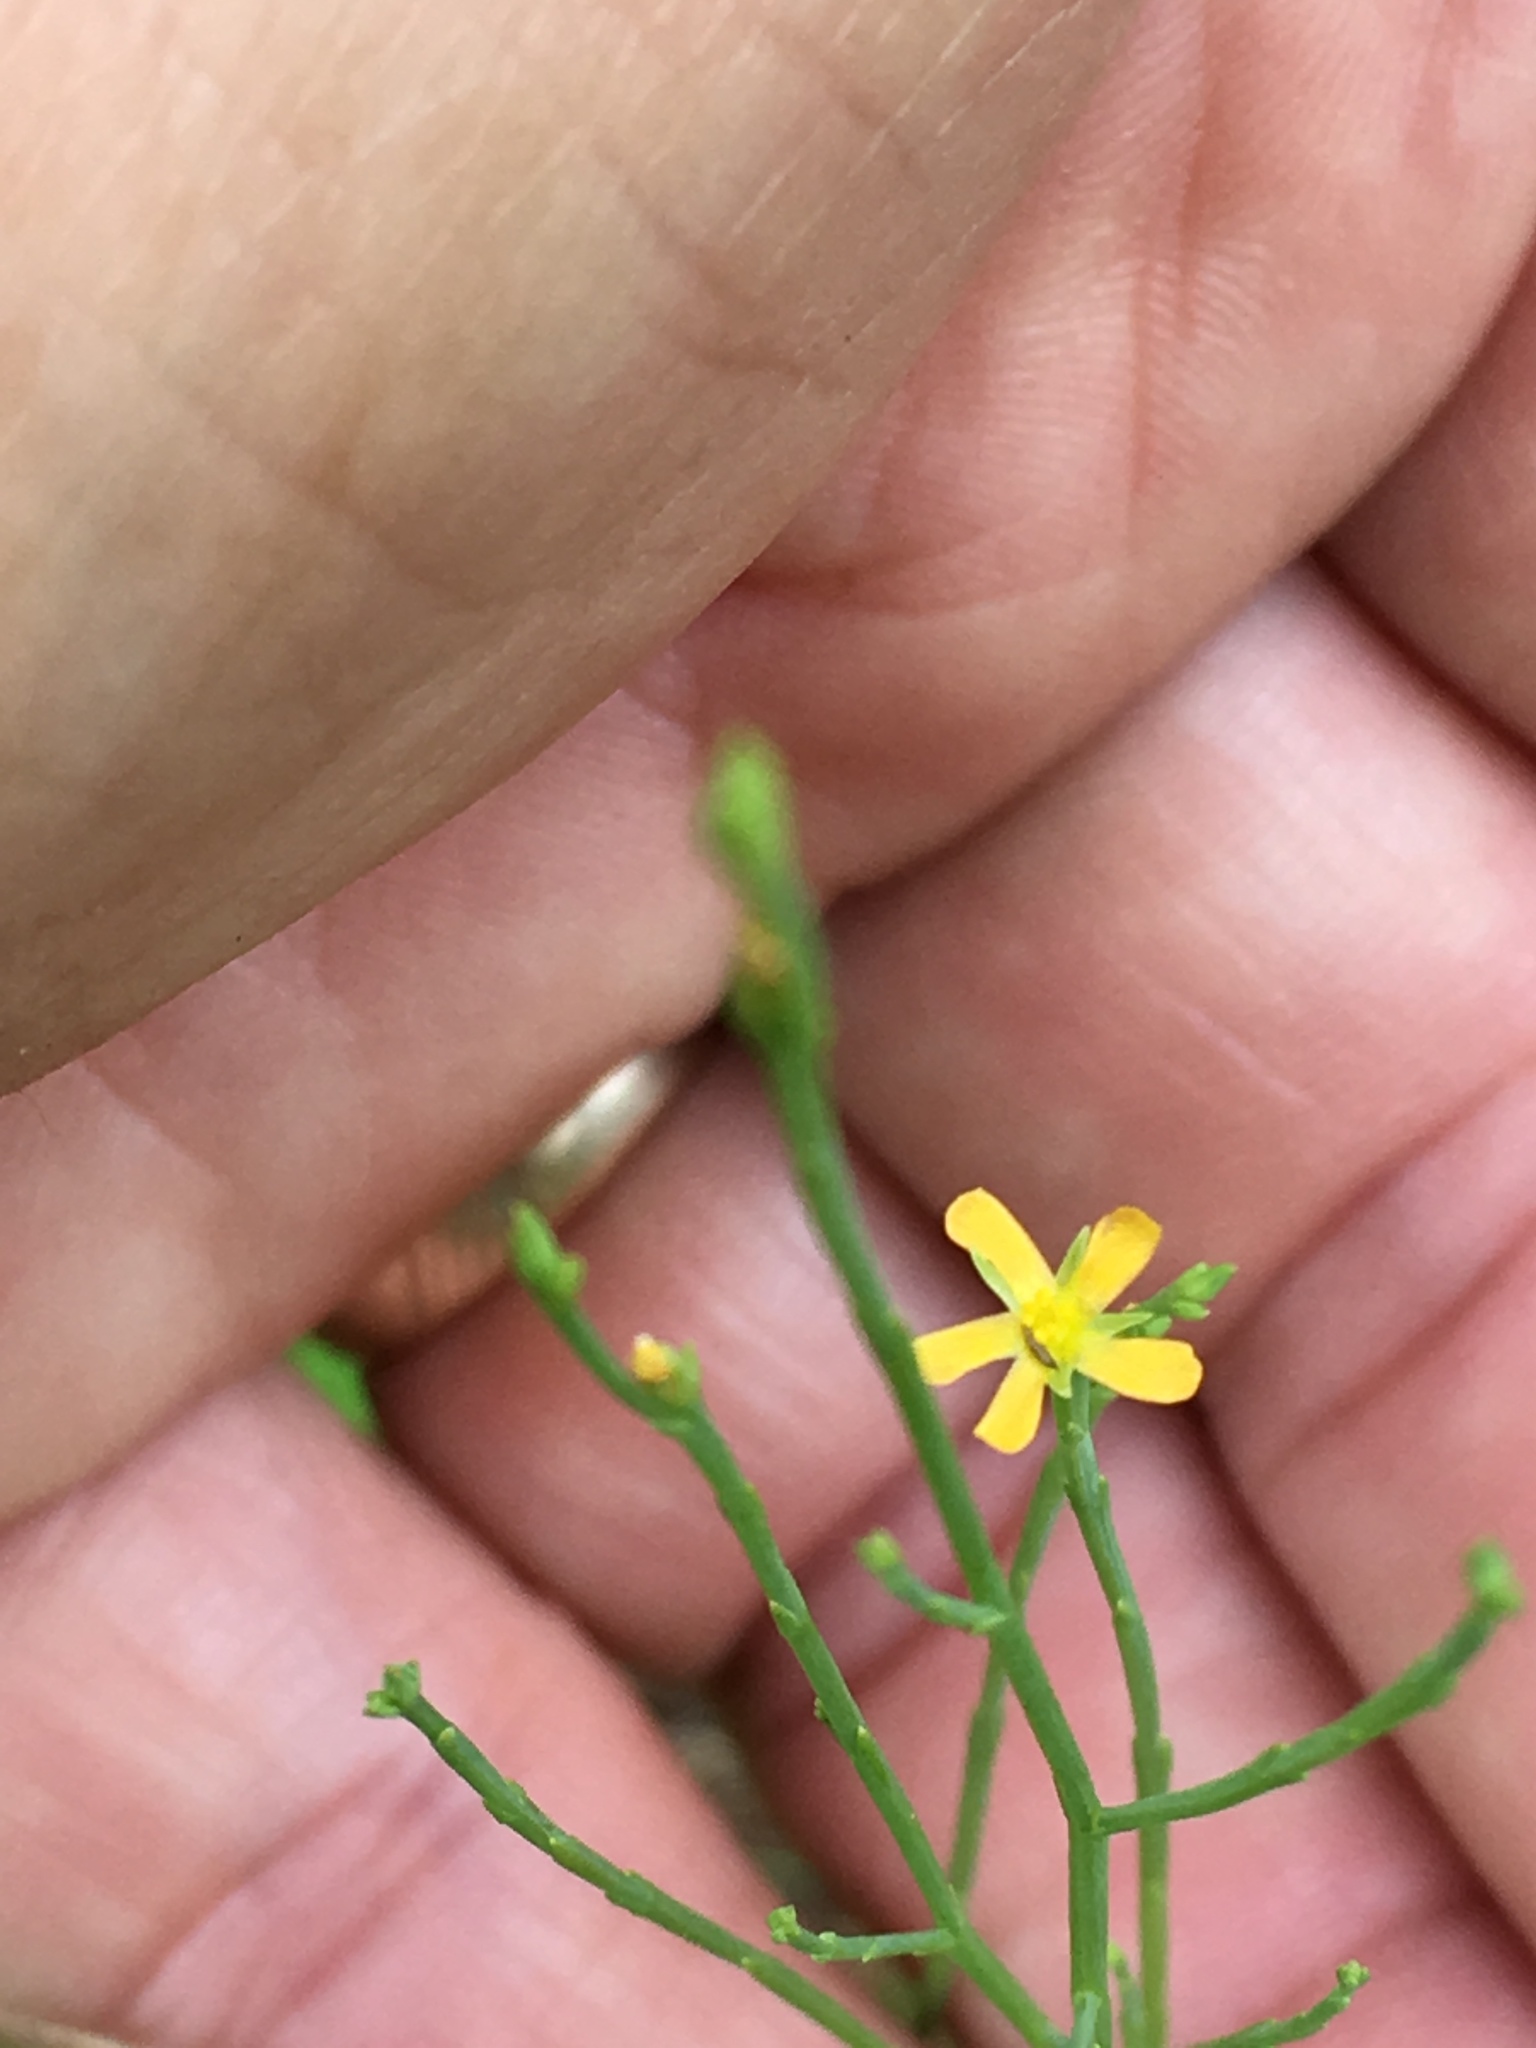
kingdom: Plantae
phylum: Tracheophyta
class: Magnoliopsida
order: Malpighiales
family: Hypericaceae
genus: Hypericum
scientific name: Hypericum gentianoides
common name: Gentian-leaved st. john's-wort
